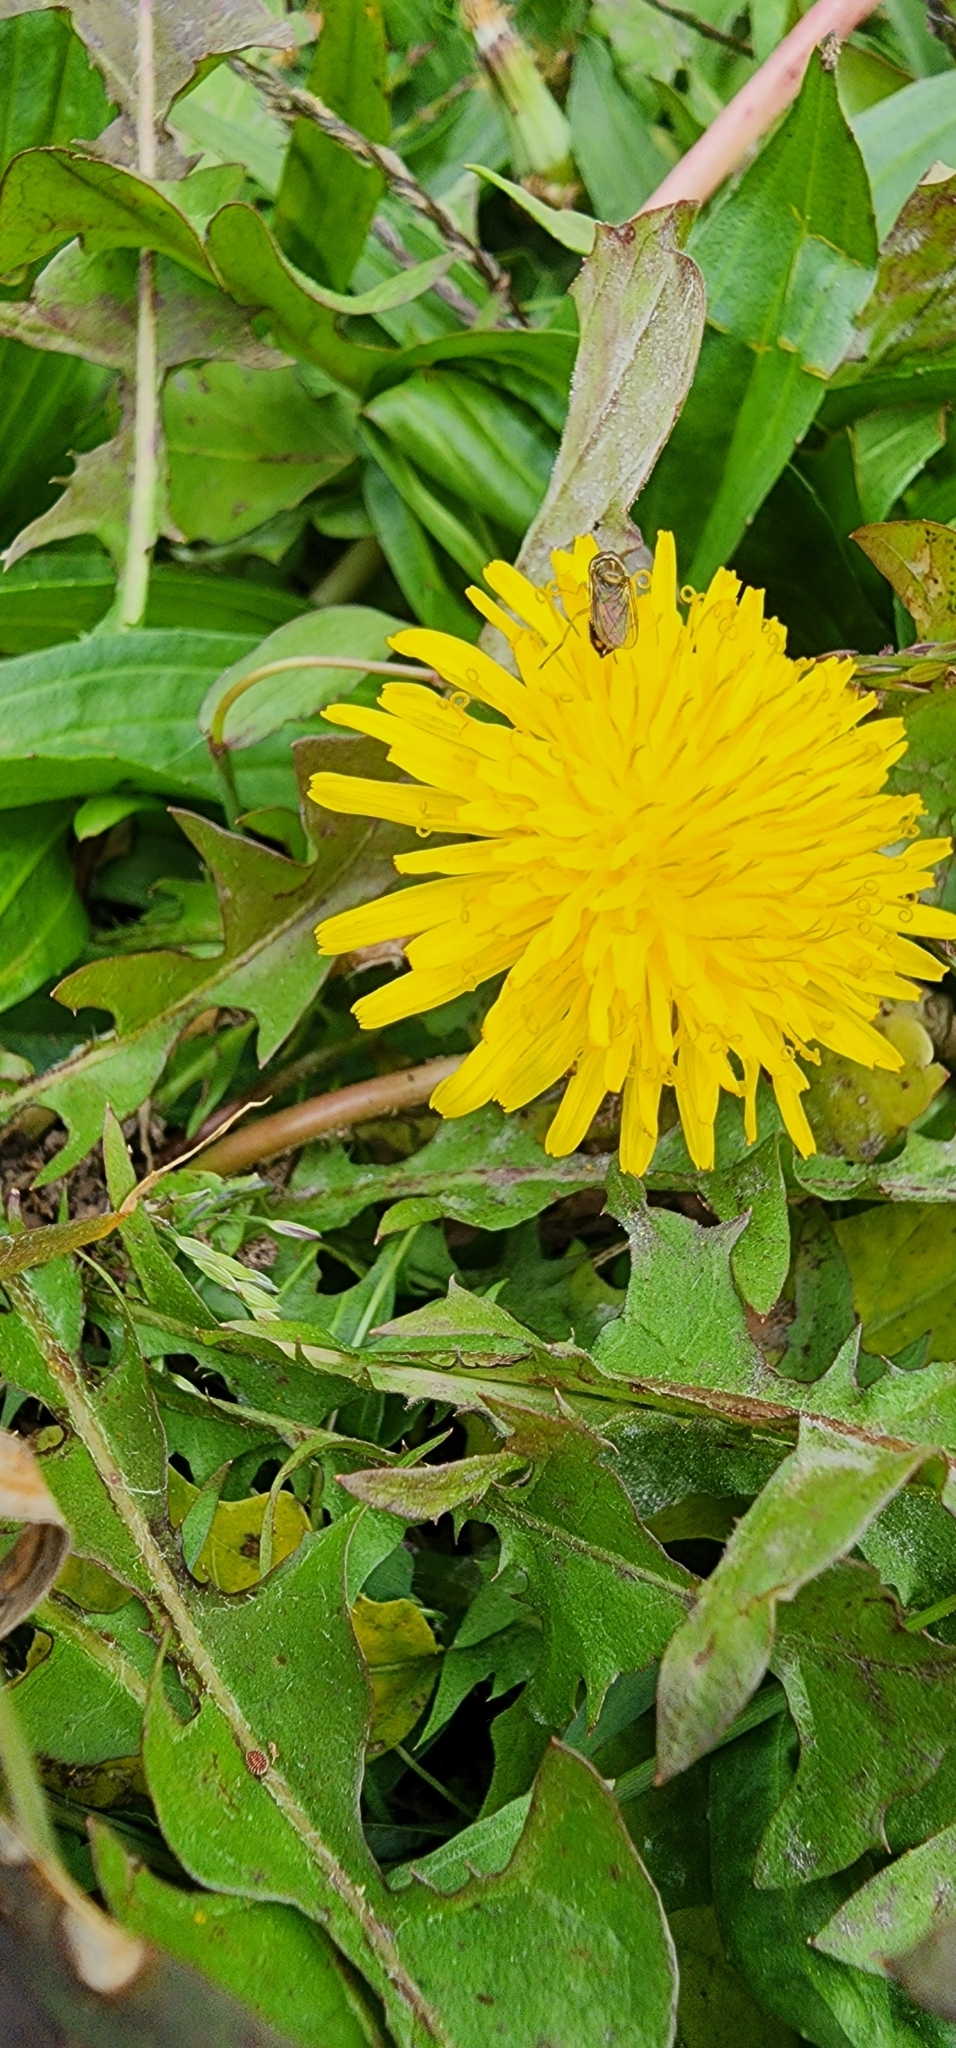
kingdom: Plantae
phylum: Tracheophyta
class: Magnoliopsida
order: Asterales
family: Asteraceae
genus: Taraxacum
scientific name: Taraxacum officinale
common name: Common dandelion
